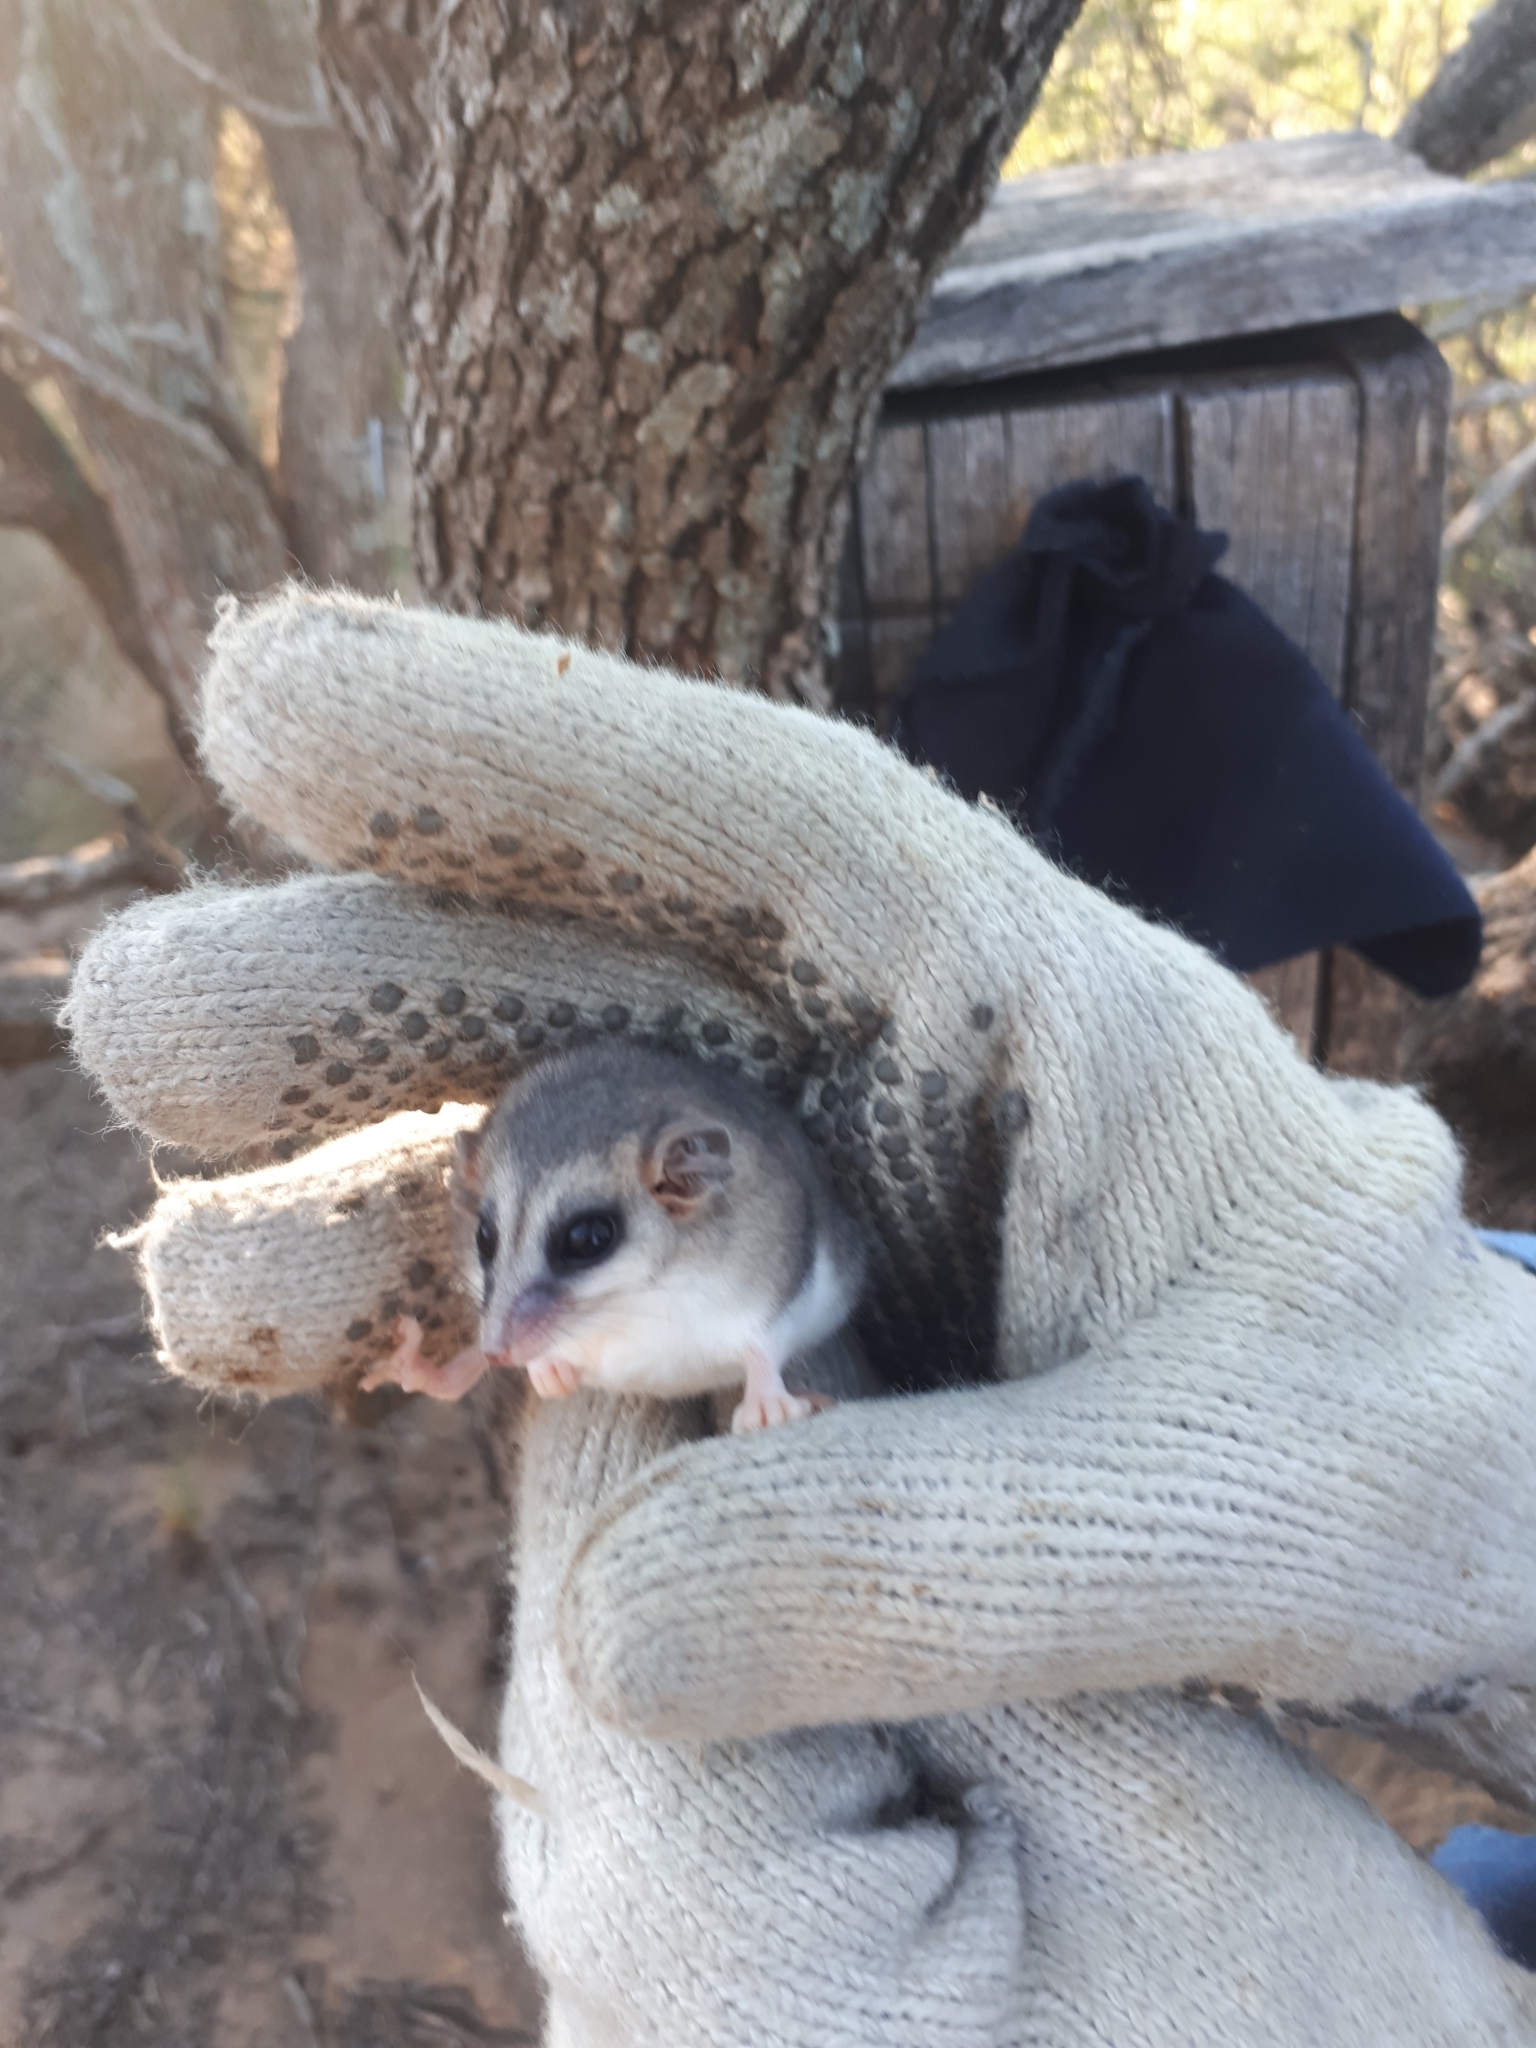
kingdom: Animalia
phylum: Chordata
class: Mammalia
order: Didelphimorphia
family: Didelphidae
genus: Thylamys
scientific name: Thylamys pallidior
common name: White-bellied fat-tailed mouse opossum
